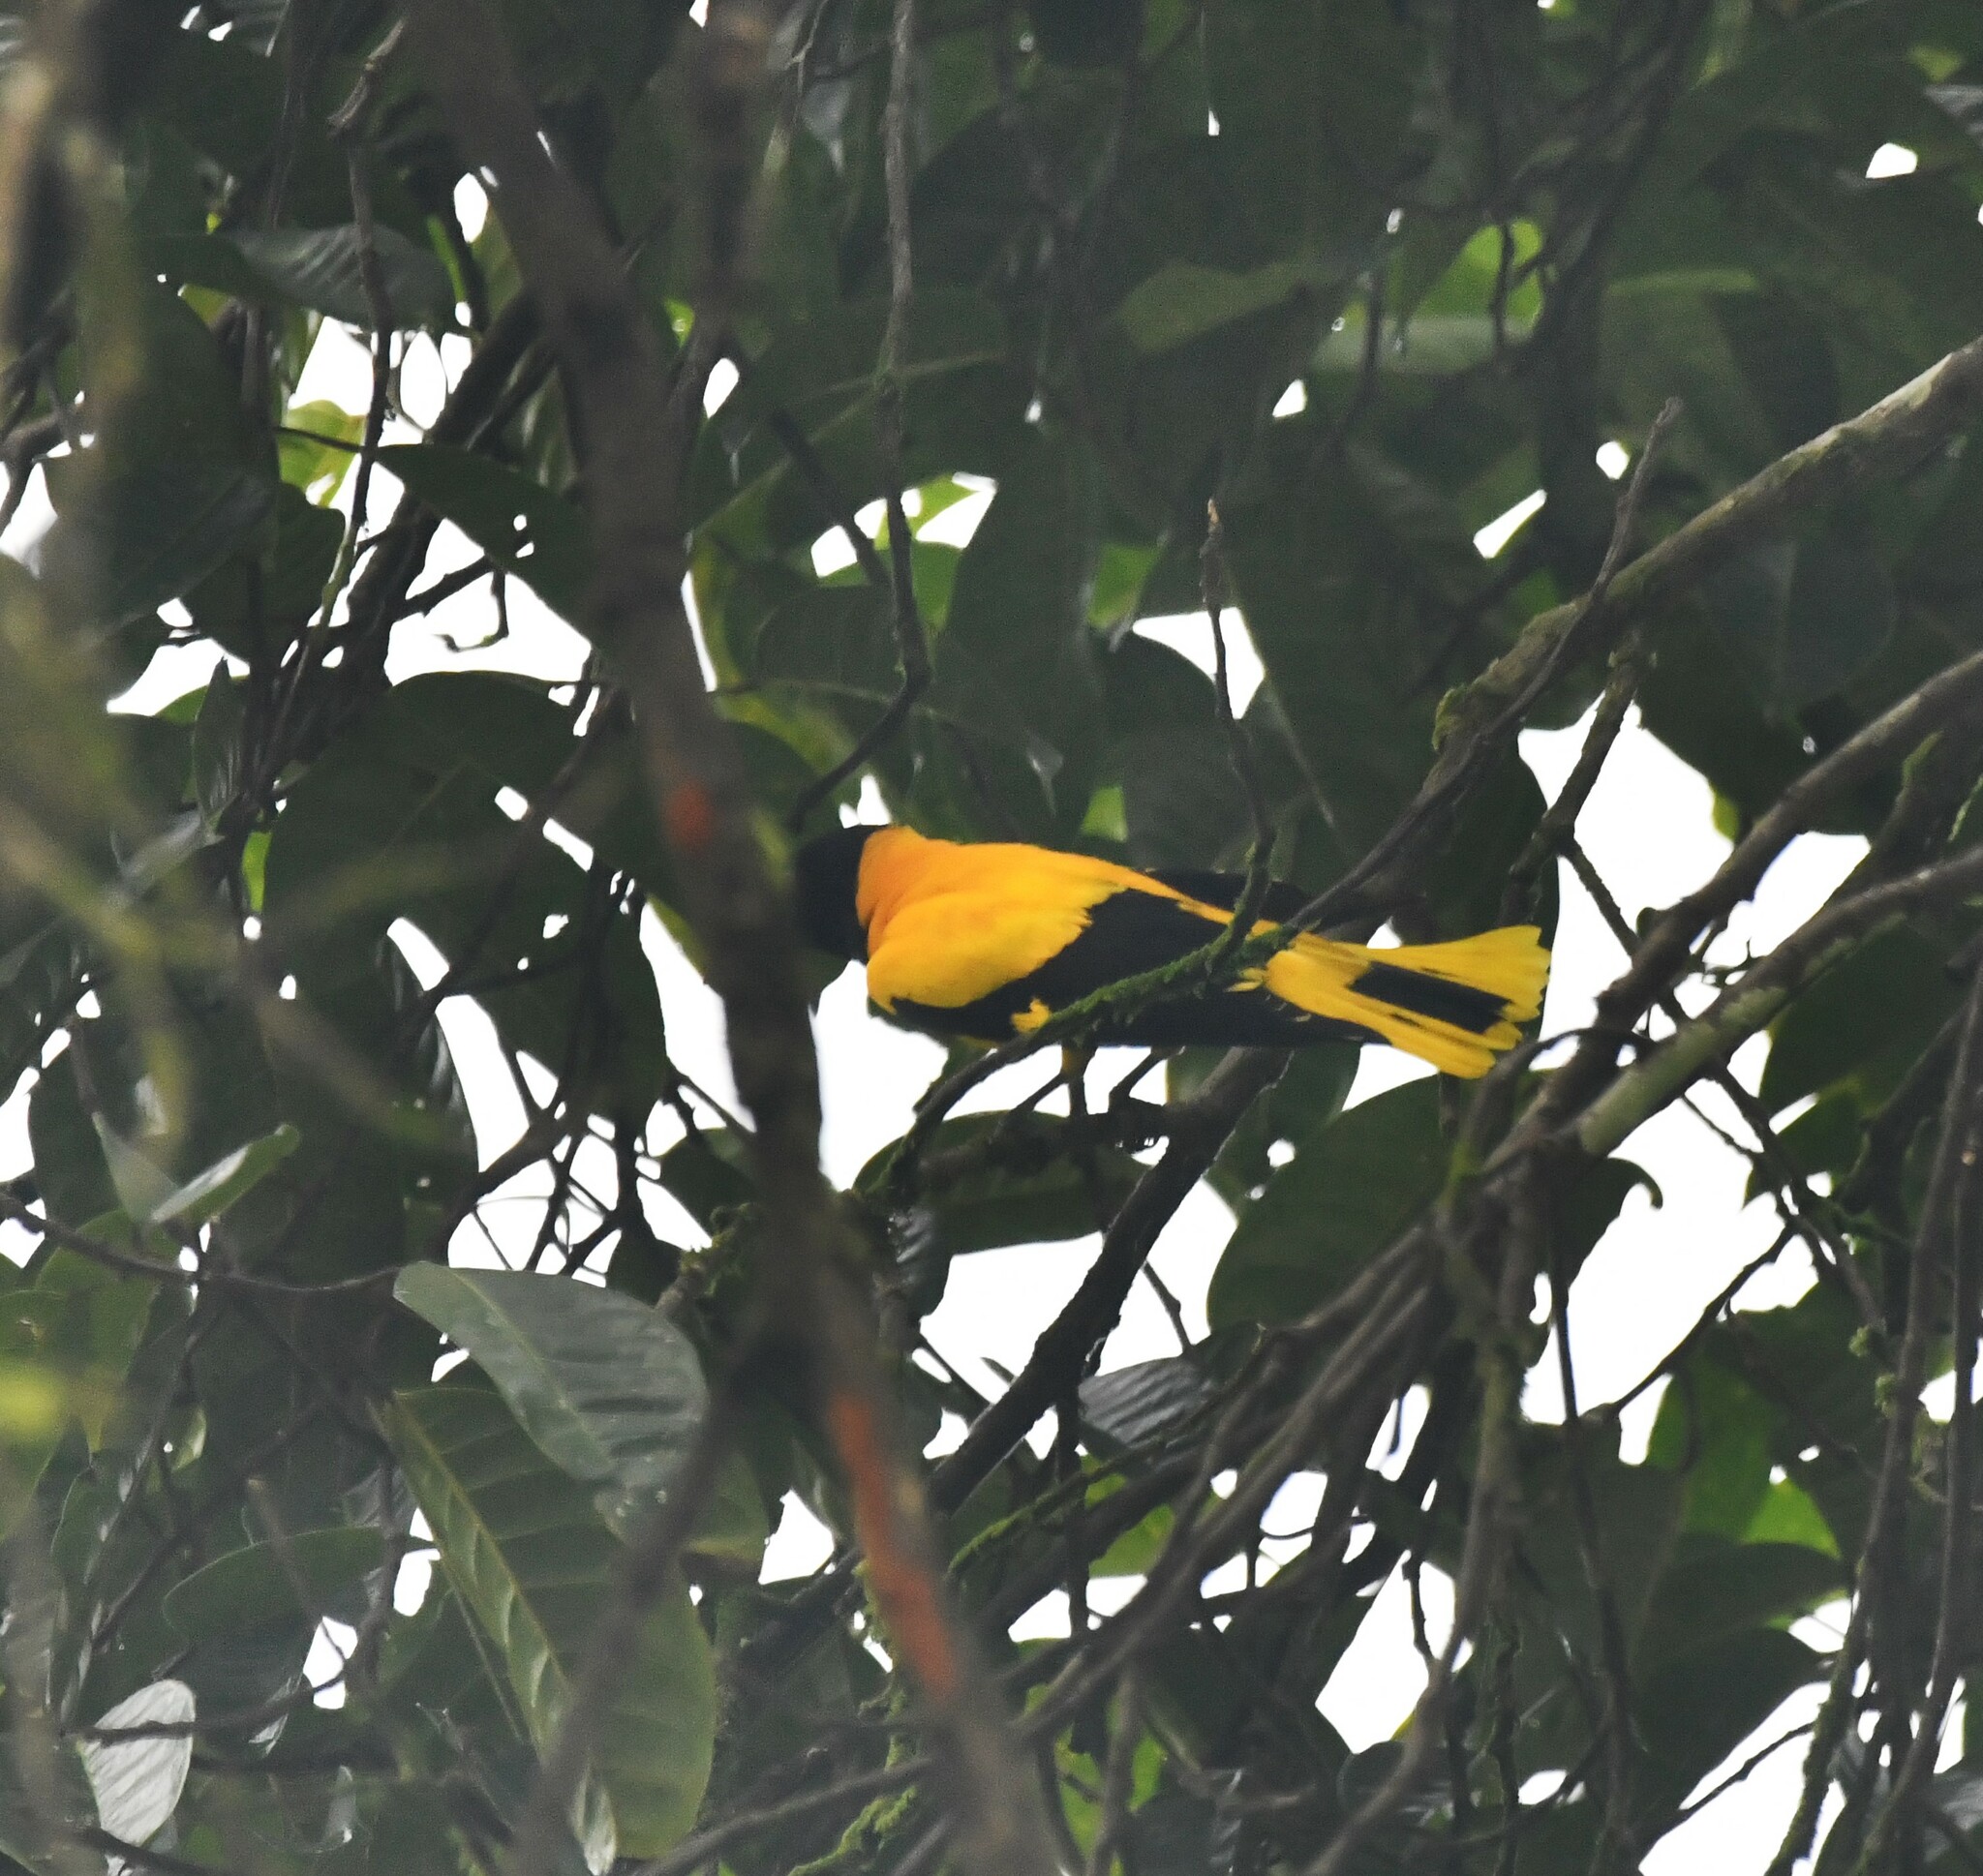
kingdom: Animalia
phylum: Chordata
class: Aves
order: Passeriformes
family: Oriolidae
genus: Oriolus
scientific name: Oriolus xanthornus
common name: Black-hooded oriole
